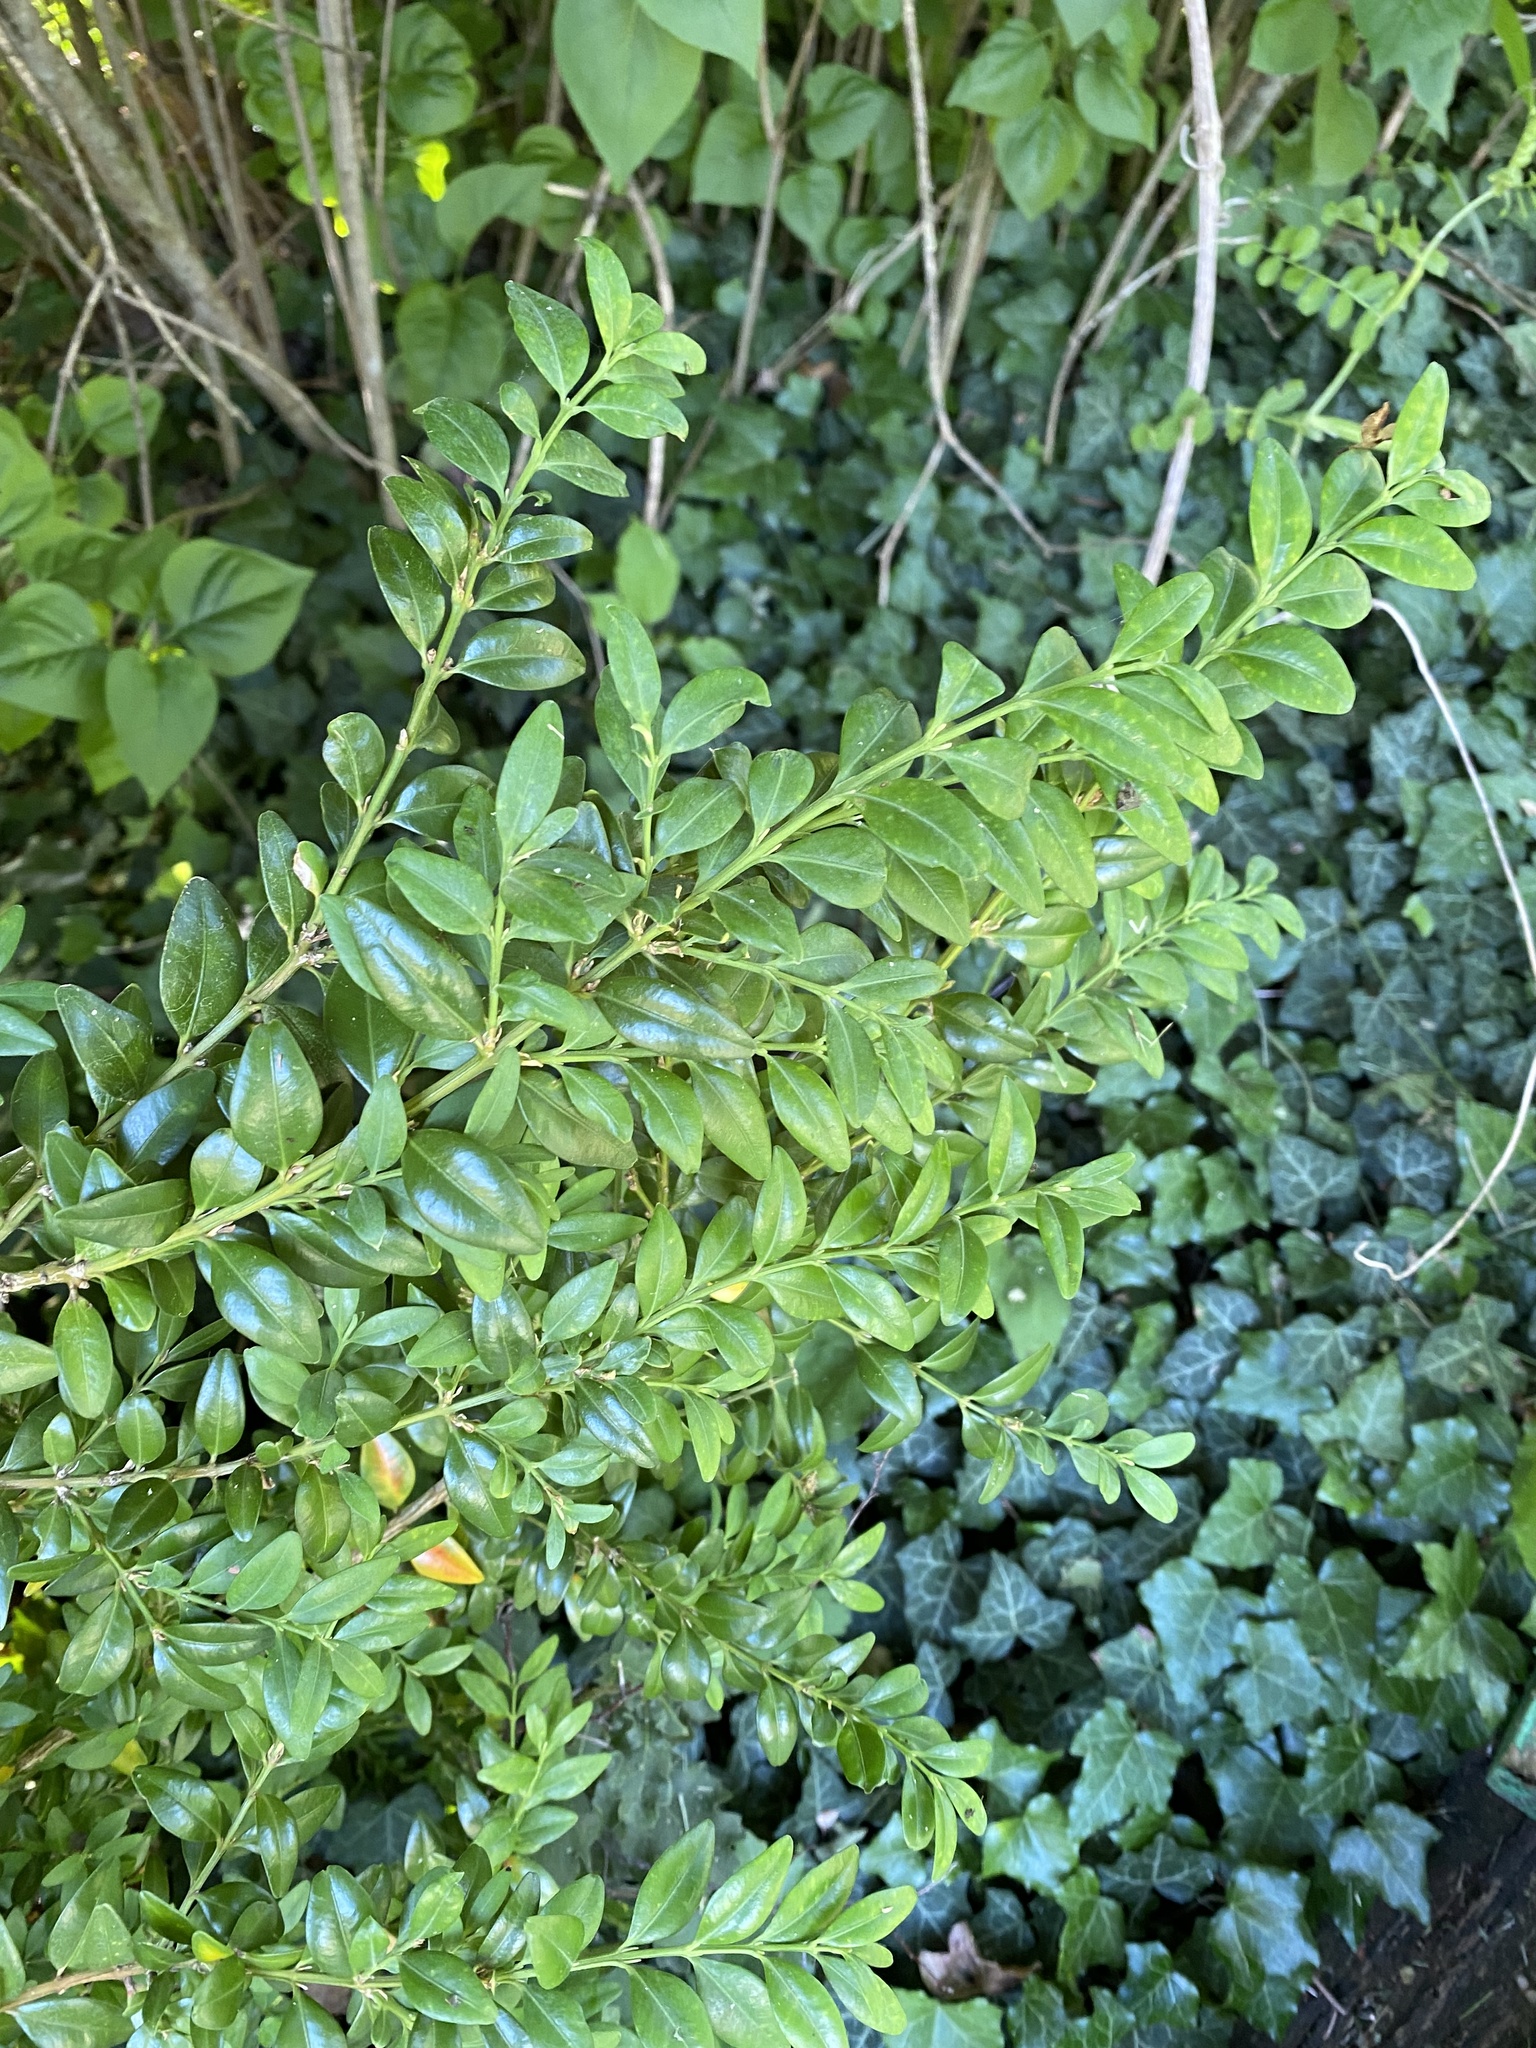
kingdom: Plantae
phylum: Tracheophyta
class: Magnoliopsida
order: Buxales
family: Buxaceae
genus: Buxus
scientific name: Buxus sempervirens
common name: Box
